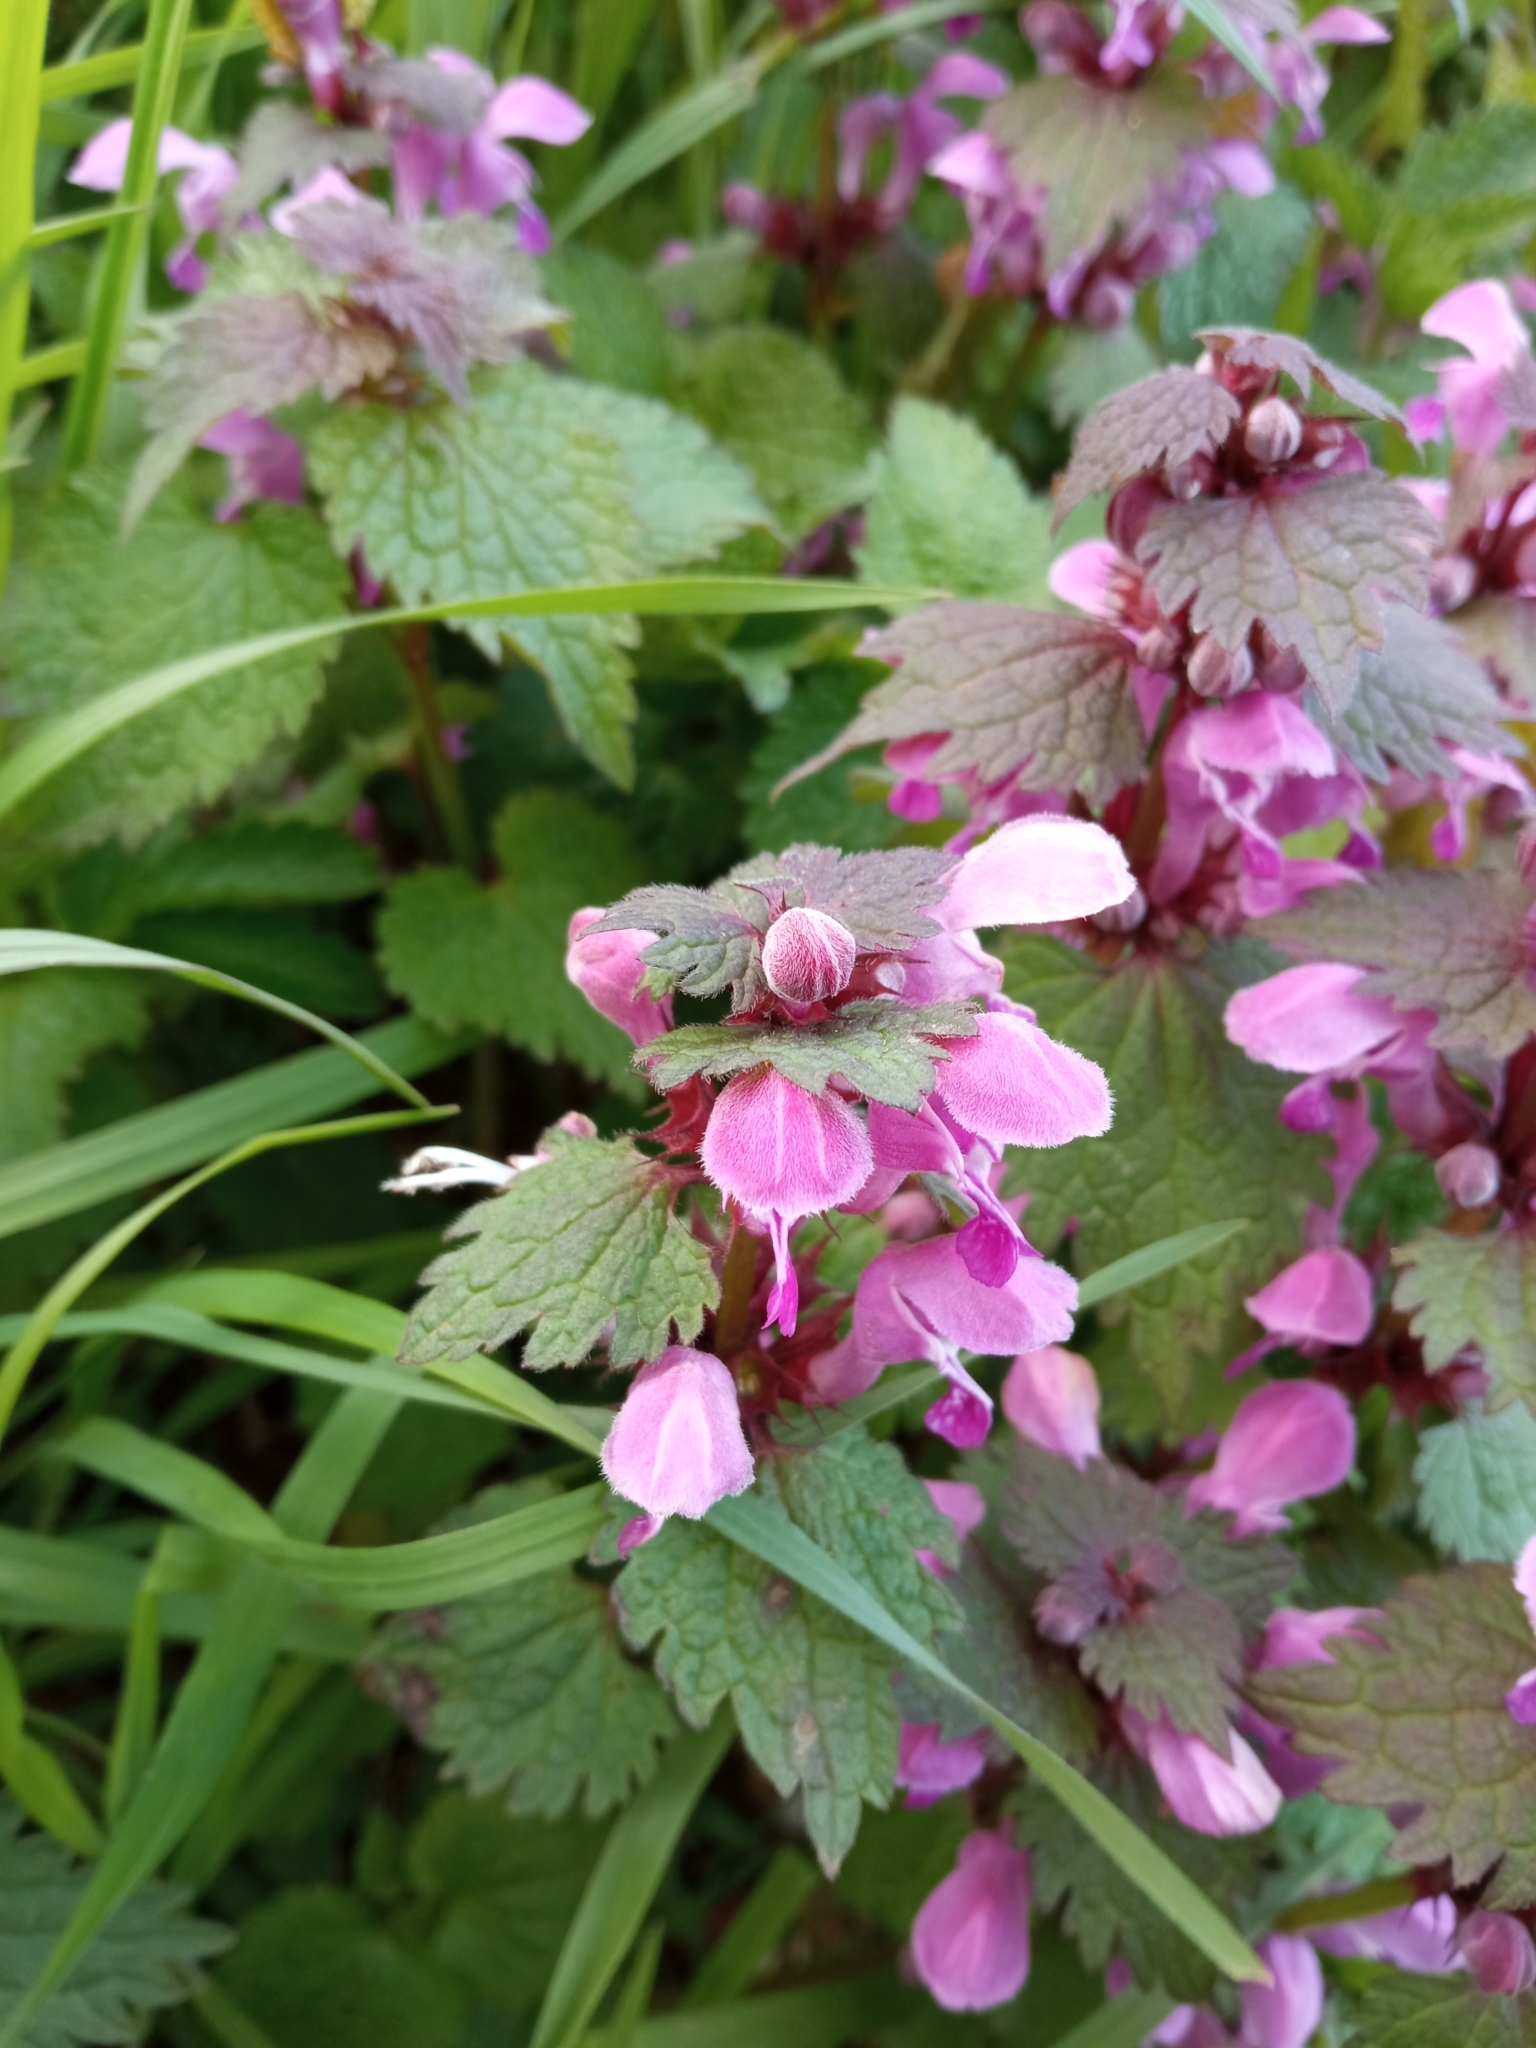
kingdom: Plantae
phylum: Tracheophyta
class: Magnoliopsida
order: Lamiales
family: Lamiaceae
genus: Lamium
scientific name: Lamium maculatum
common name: Spotted dead-nettle
